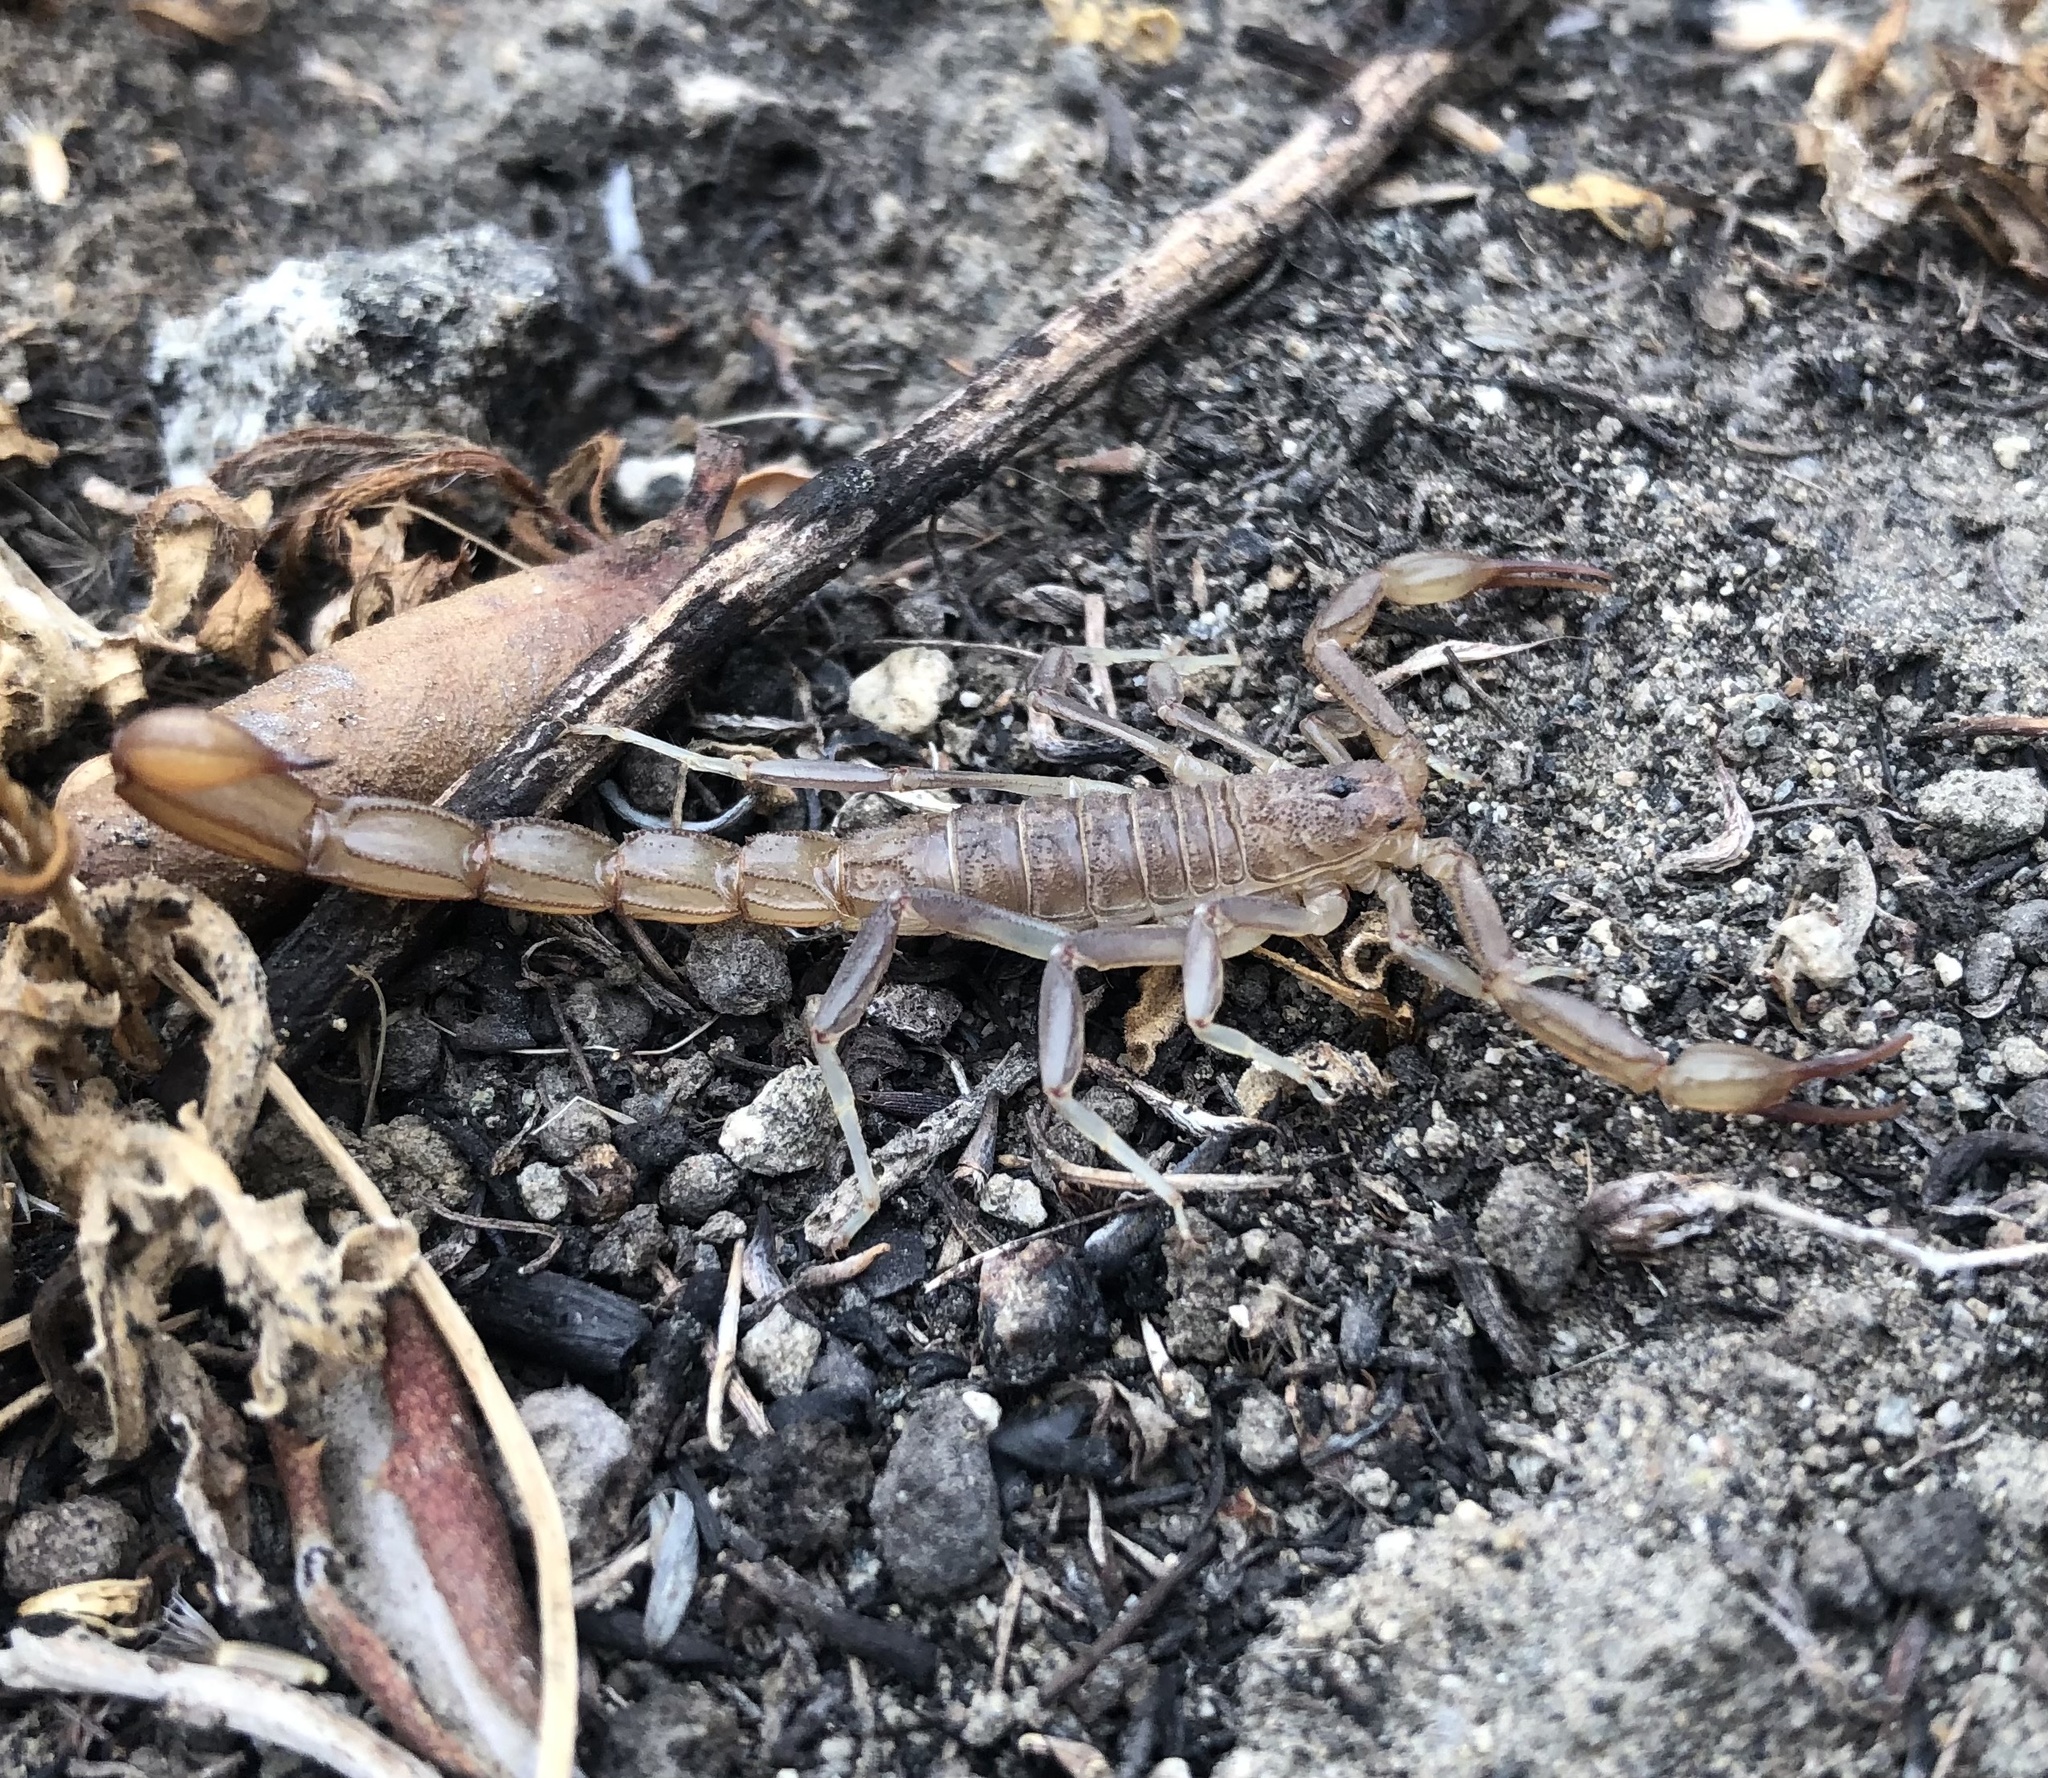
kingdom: Animalia
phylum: Arthropoda
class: Arachnida
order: Scorpiones
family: Vaejovidae
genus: Paravaejovis
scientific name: Paravaejovis puritanus
